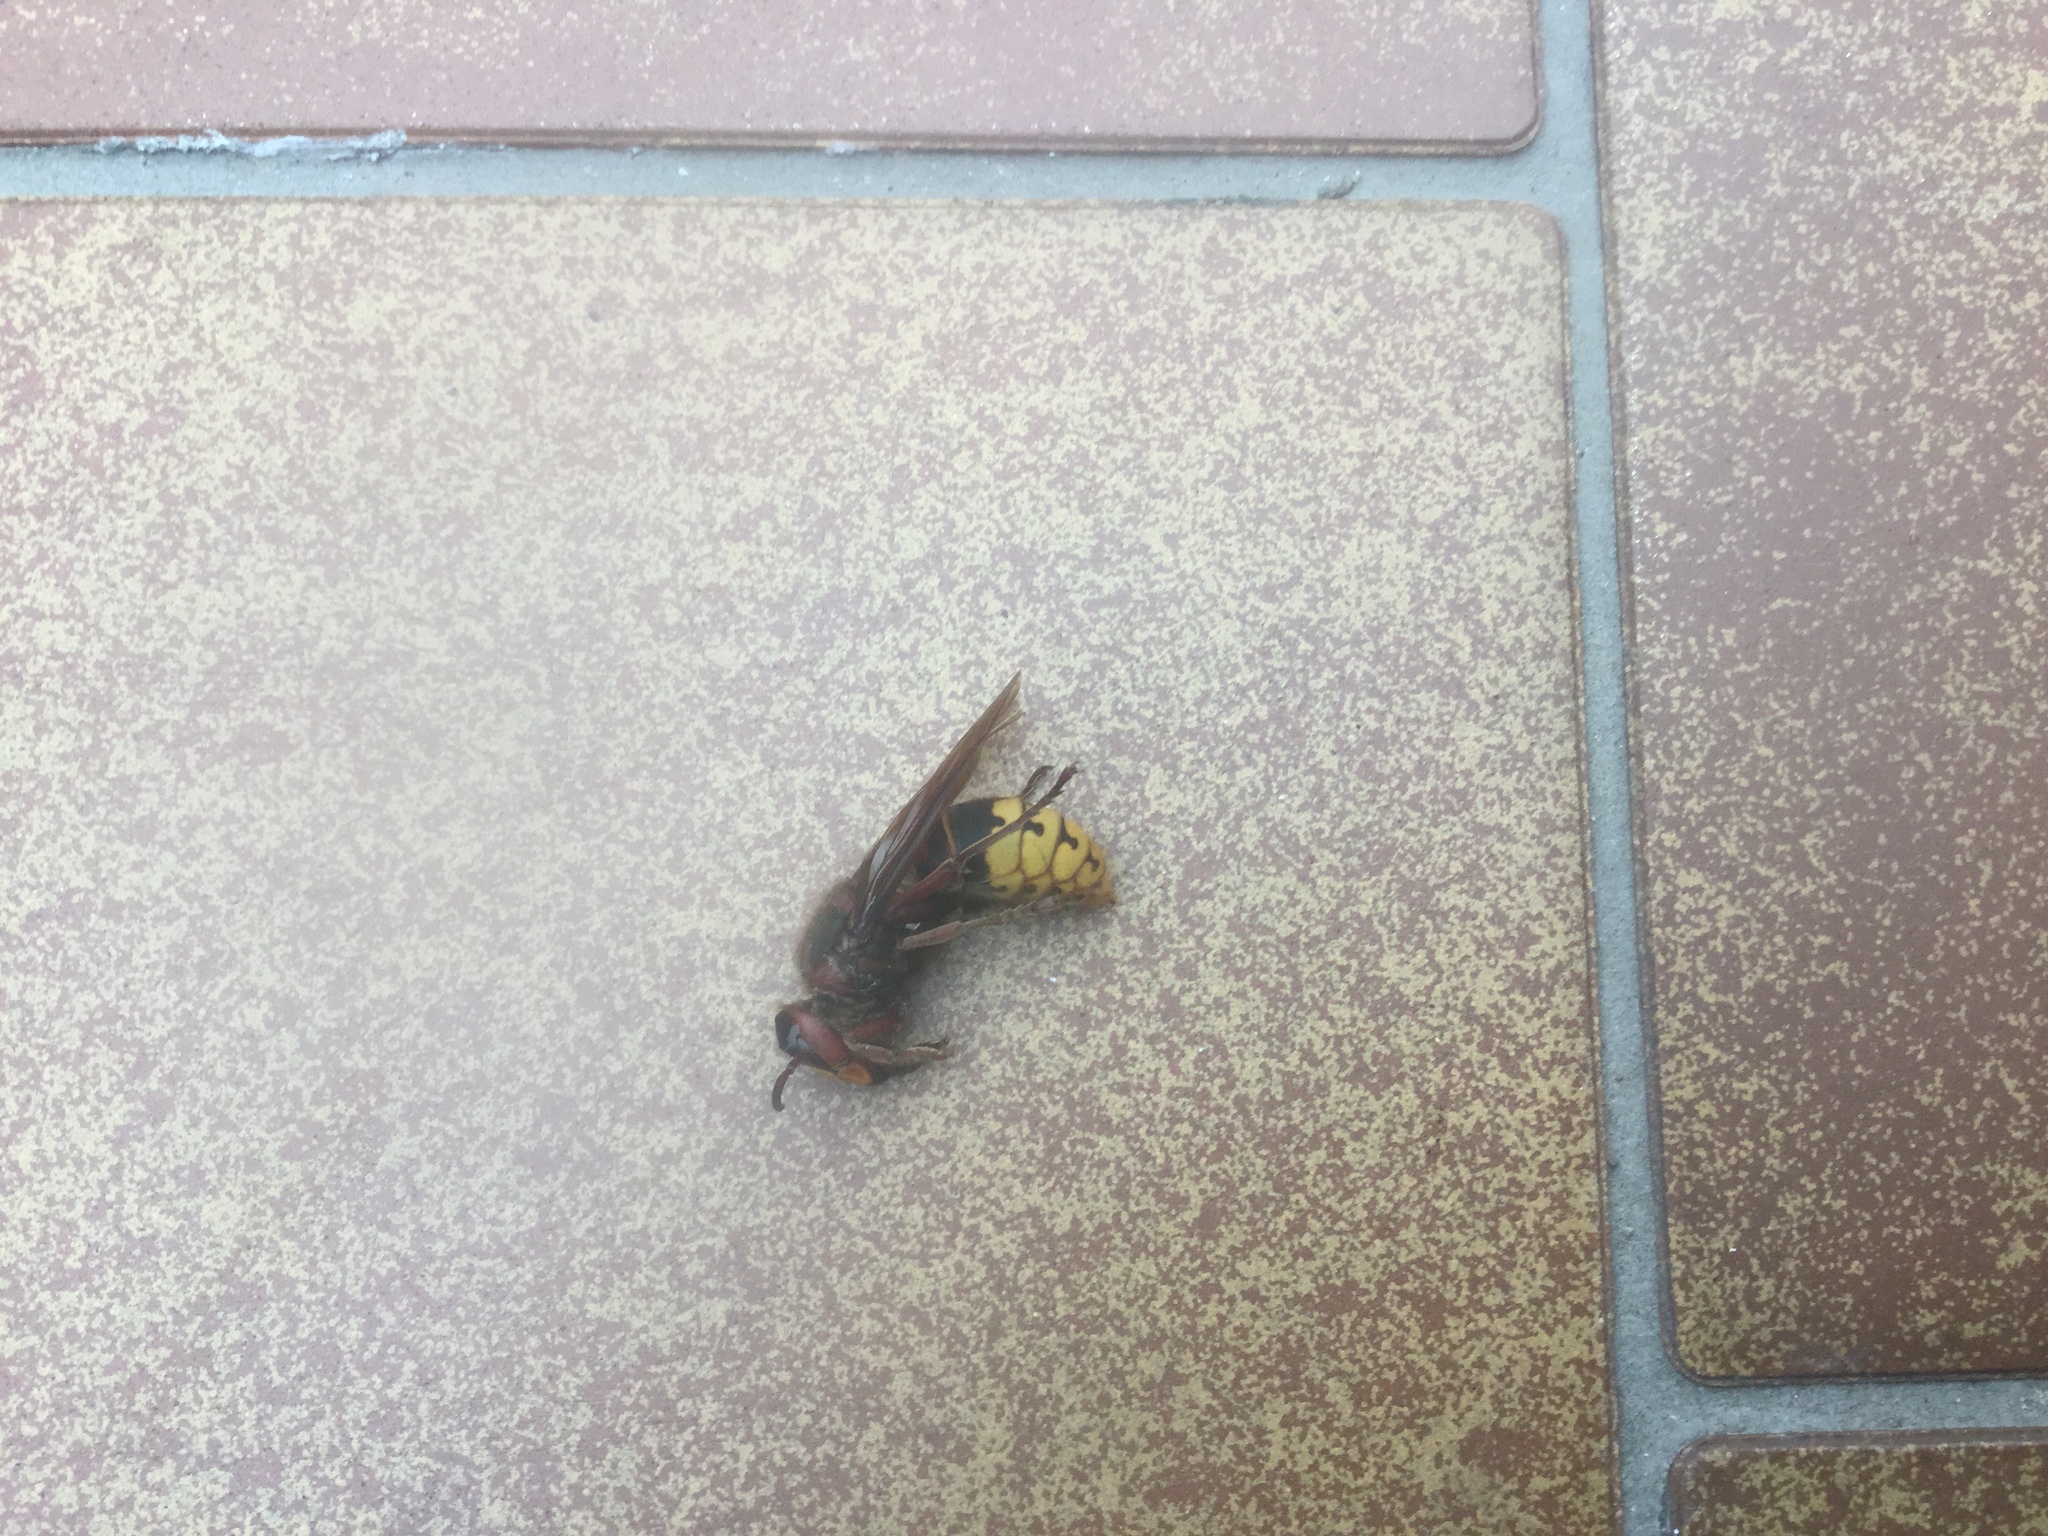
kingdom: Animalia
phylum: Arthropoda
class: Insecta
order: Hymenoptera
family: Vespidae
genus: Vespa
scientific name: Vespa crabro
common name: Hornet
